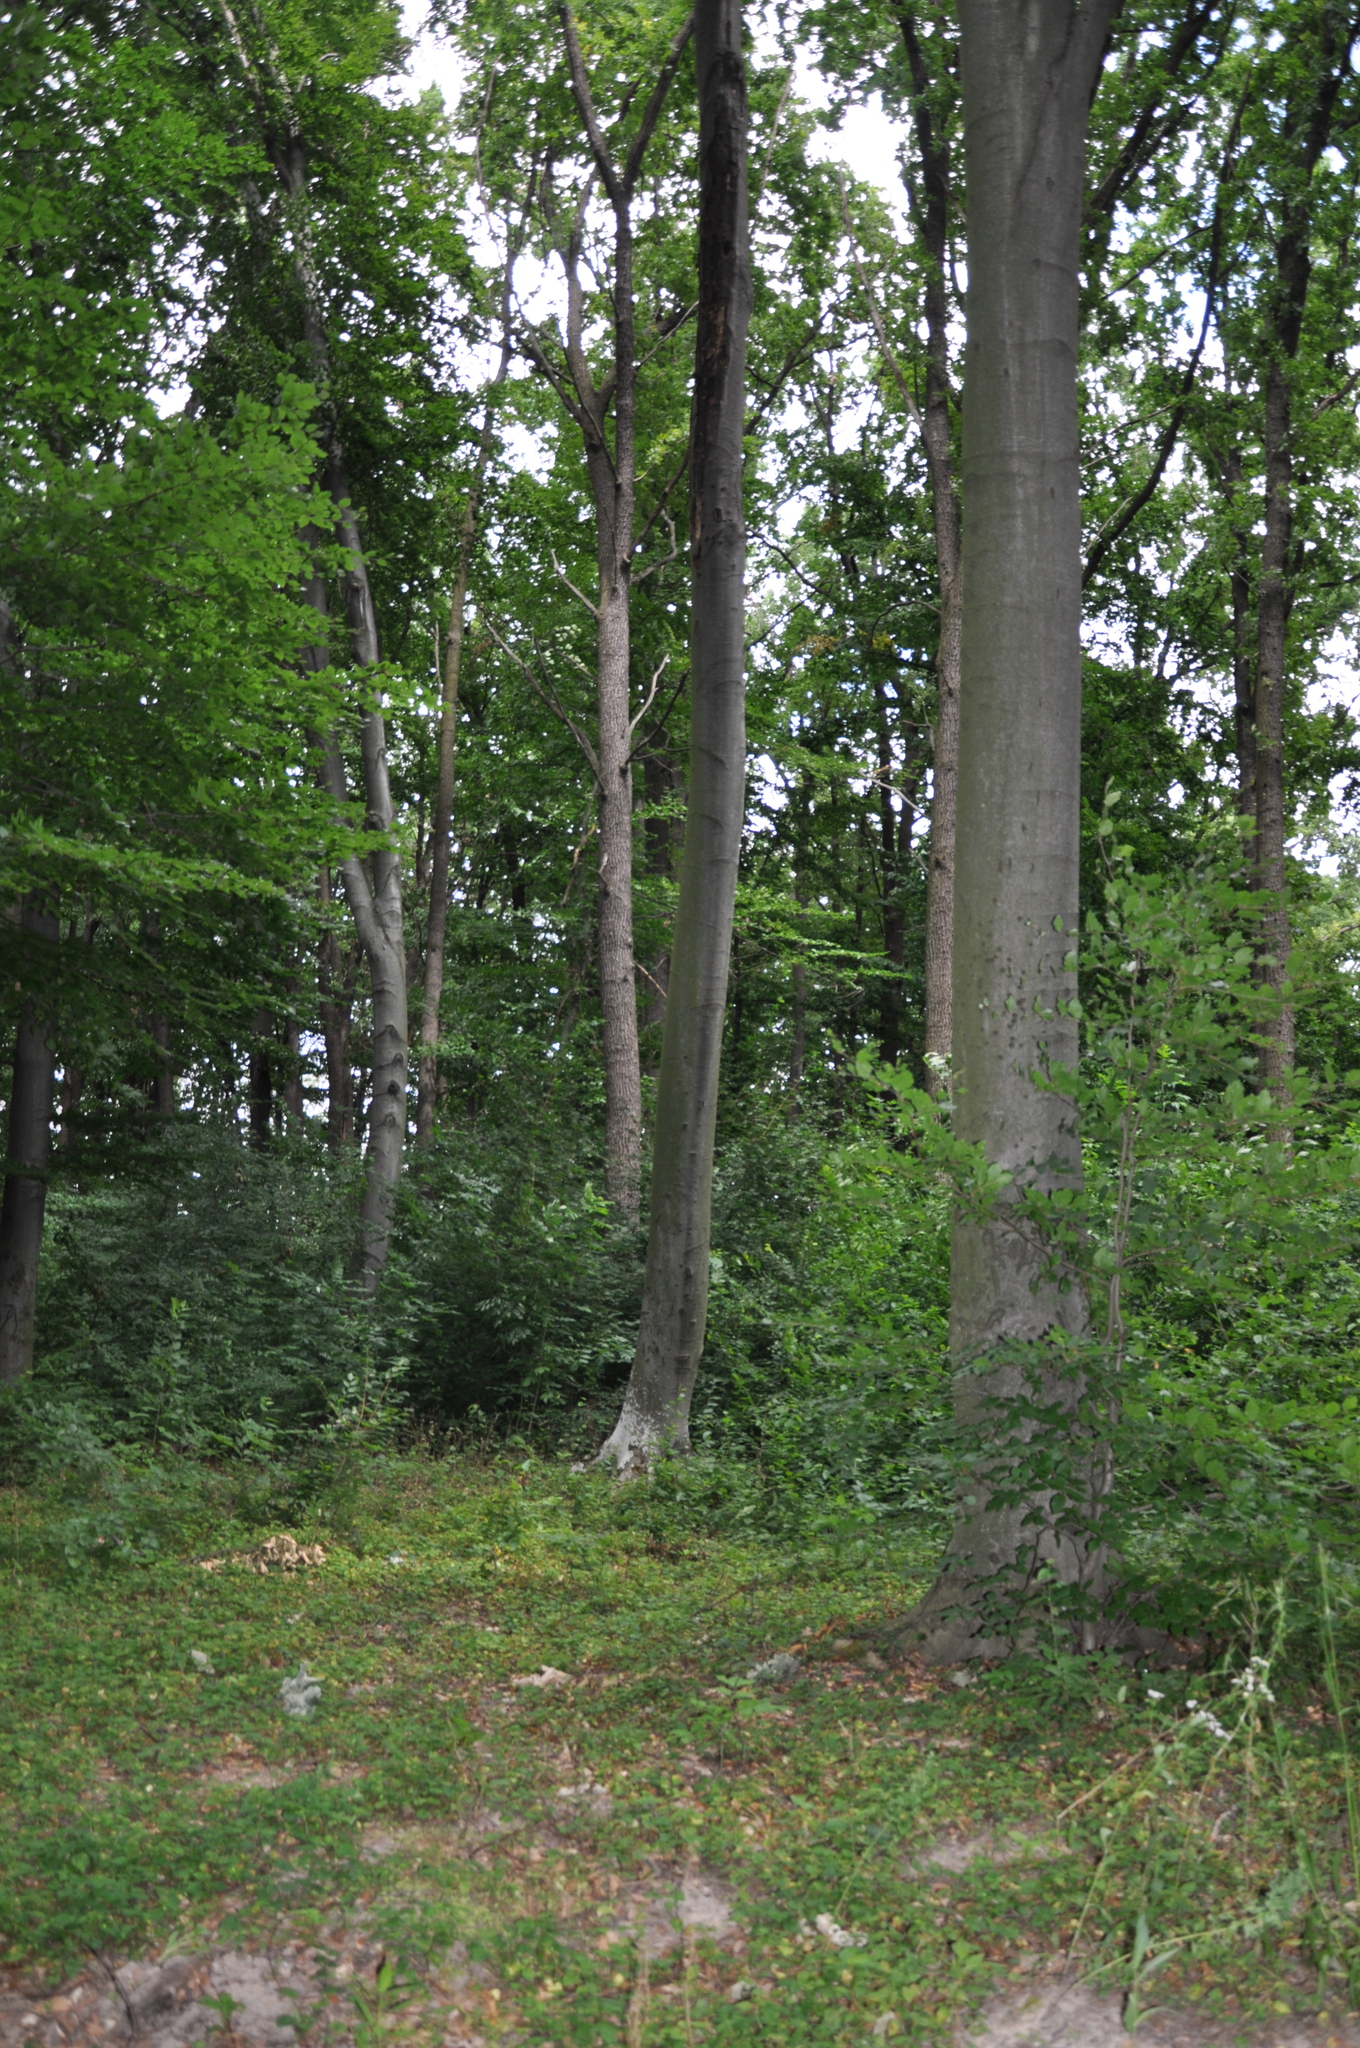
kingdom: Plantae
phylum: Tracheophyta
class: Magnoliopsida
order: Fagales
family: Fagaceae
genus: Fagus
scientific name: Fagus sylvatica
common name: Beech
